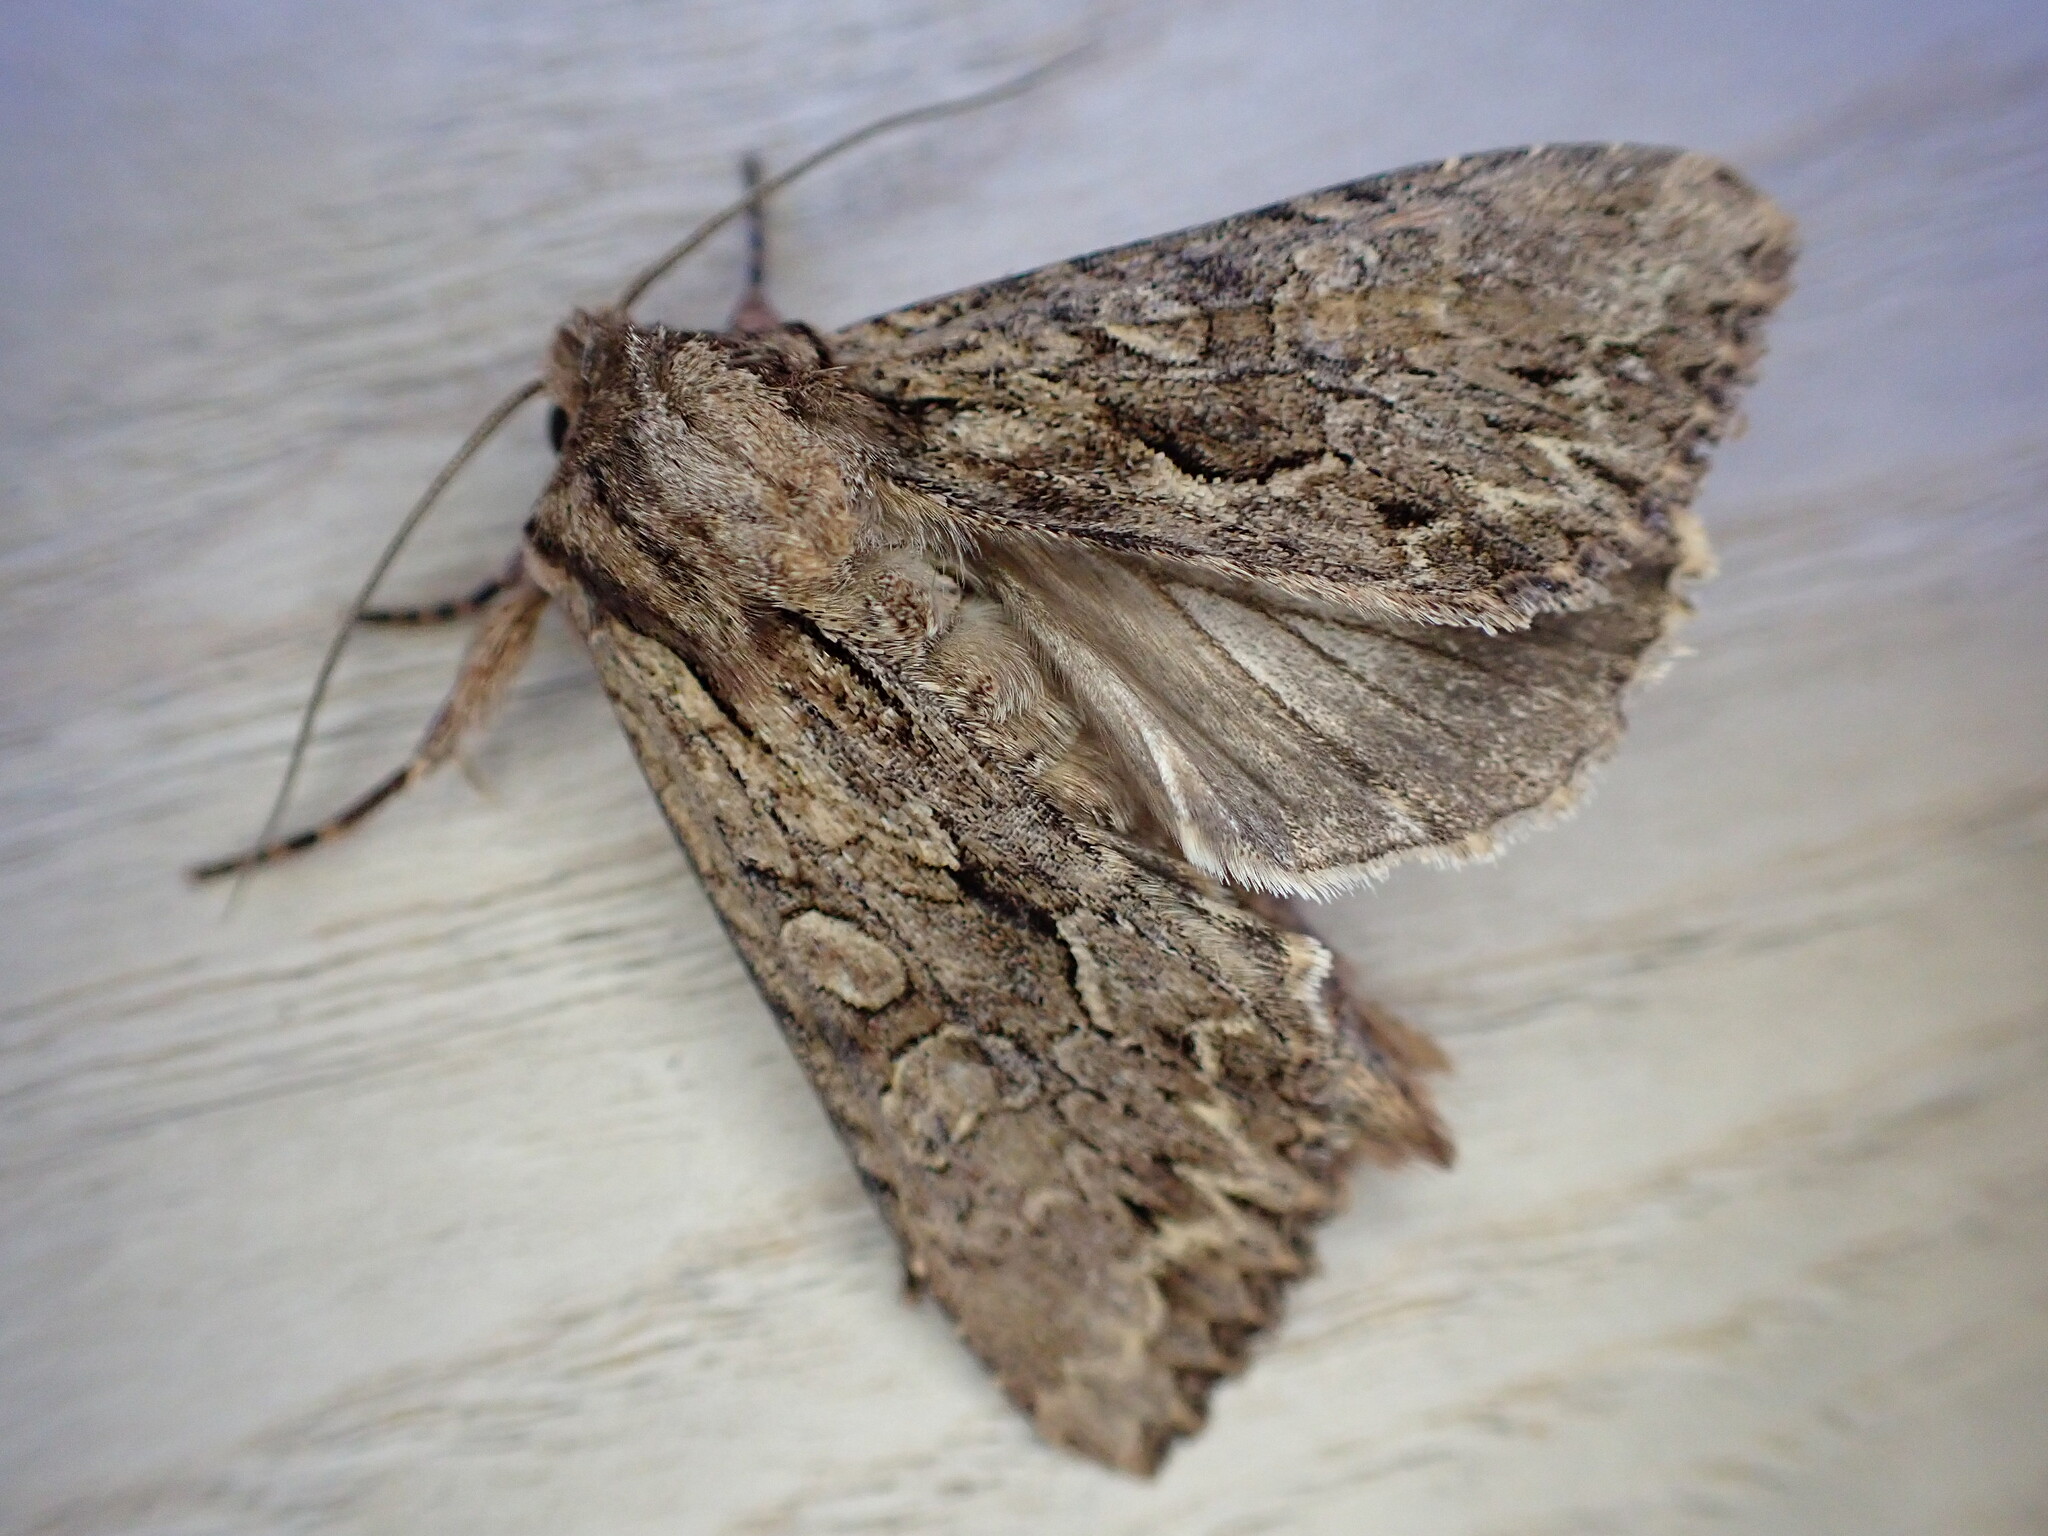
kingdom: Animalia
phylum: Arthropoda
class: Insecta
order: Lepidoptera
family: Noctuidae
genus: Apamea
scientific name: Apamea monoglypha
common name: Dark arches
